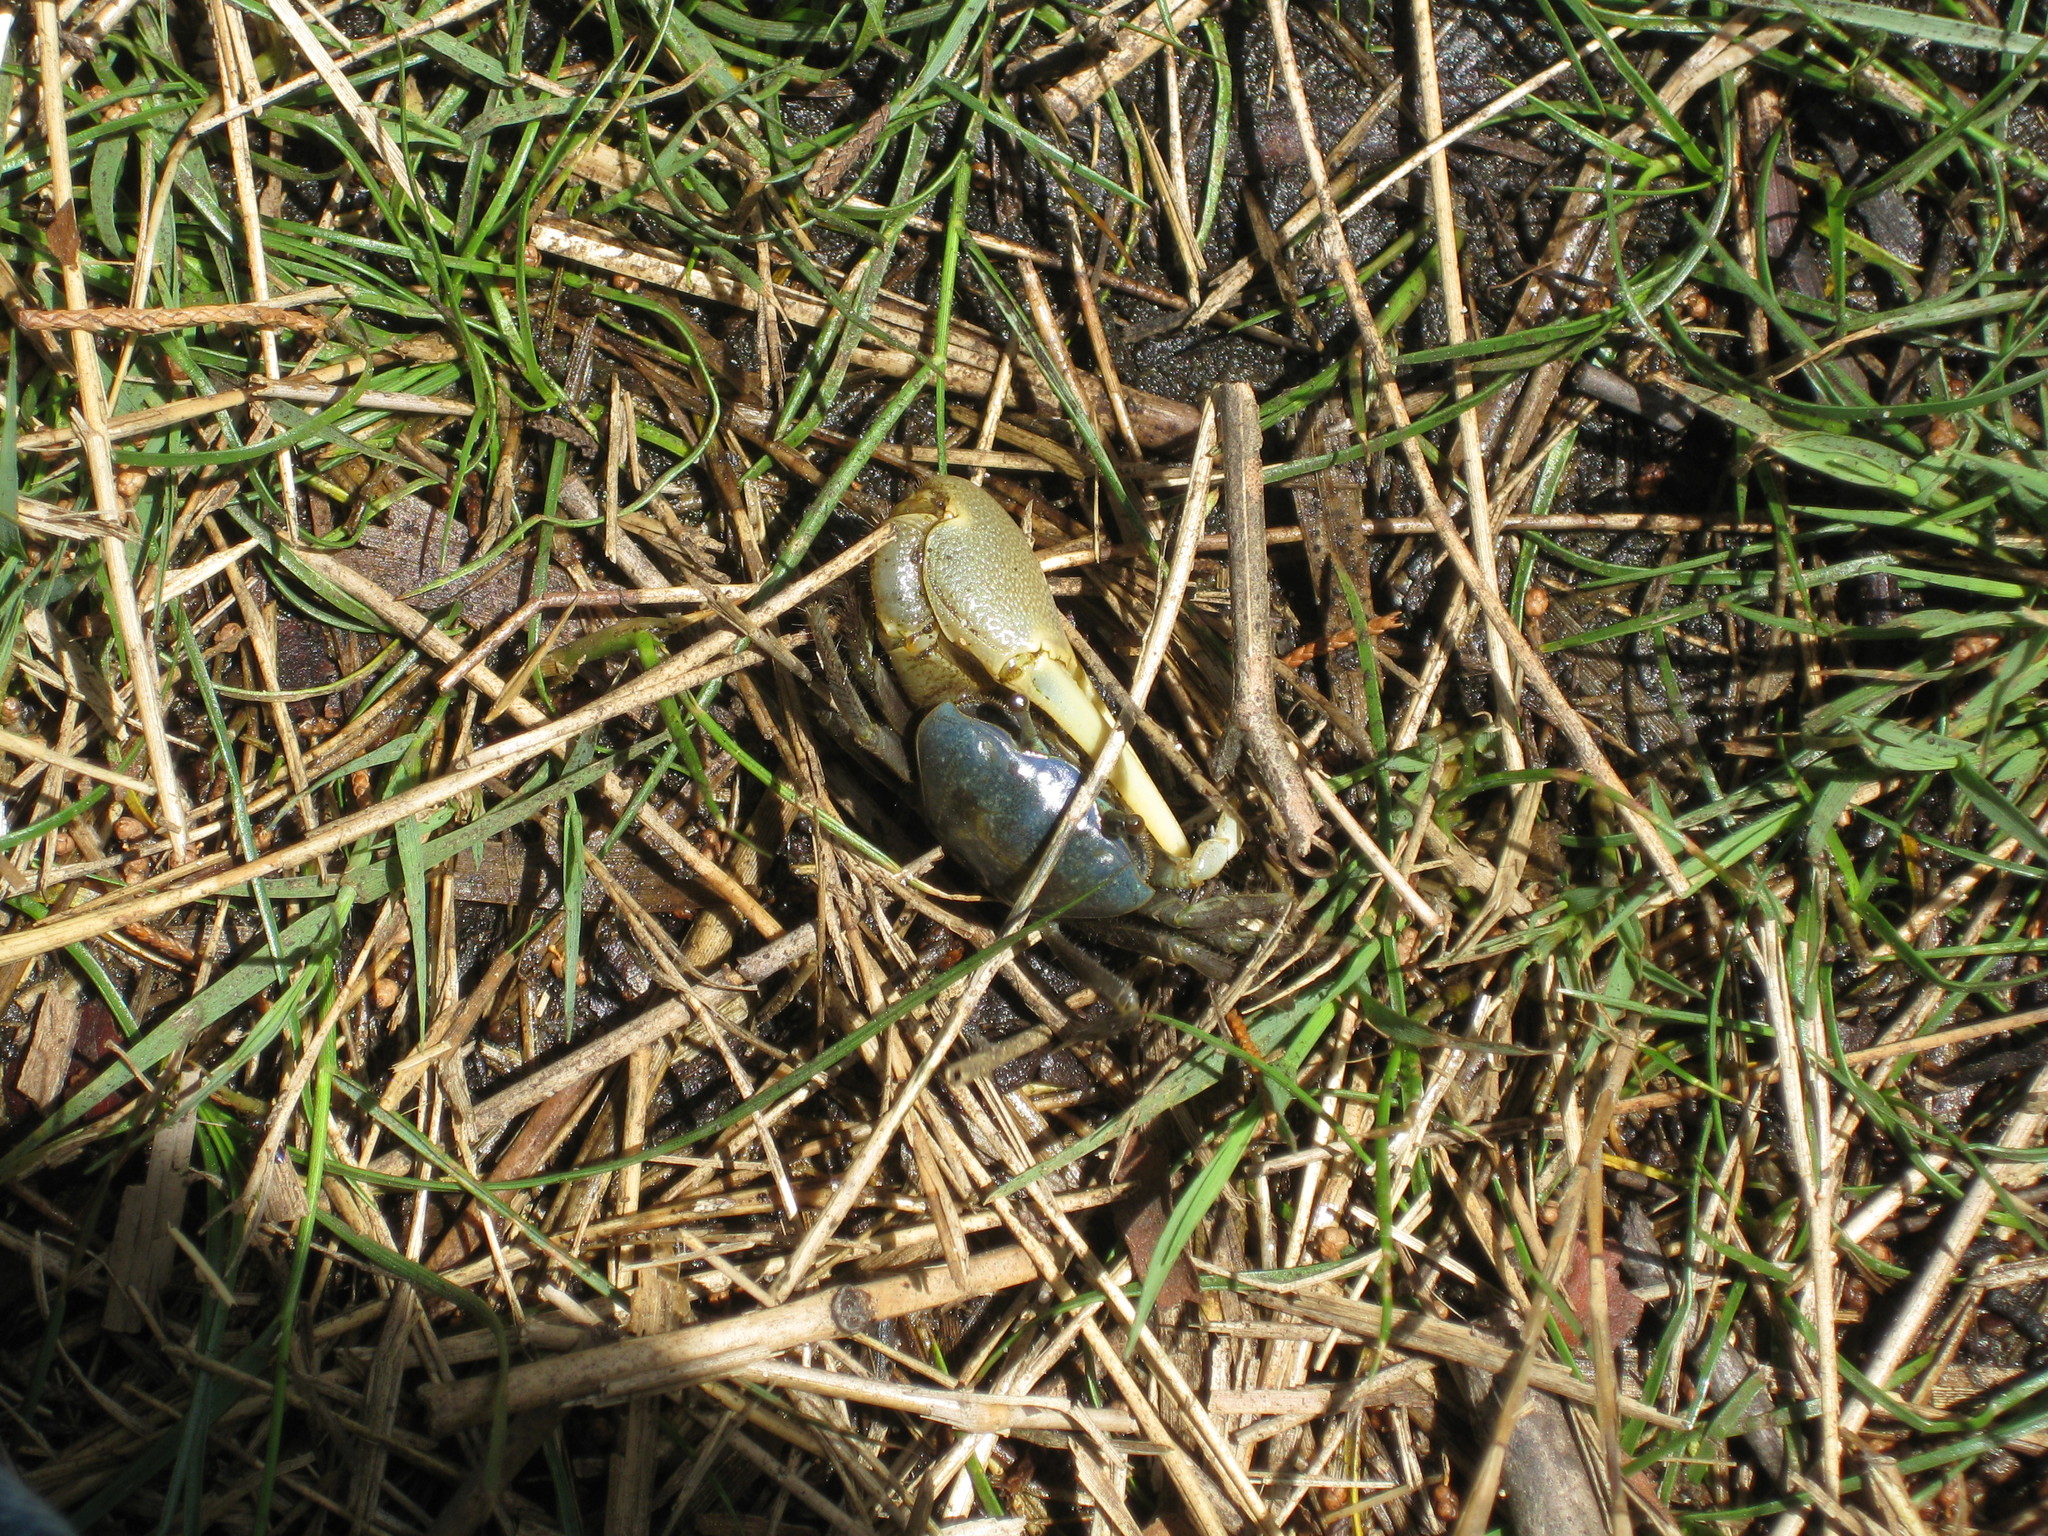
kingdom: Animalia
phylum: Arthropoda
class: Malacostraca
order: Decapoda
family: Ocypodidae
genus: Minuca
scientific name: Minuca pugnax
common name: Mud fiddler crab
